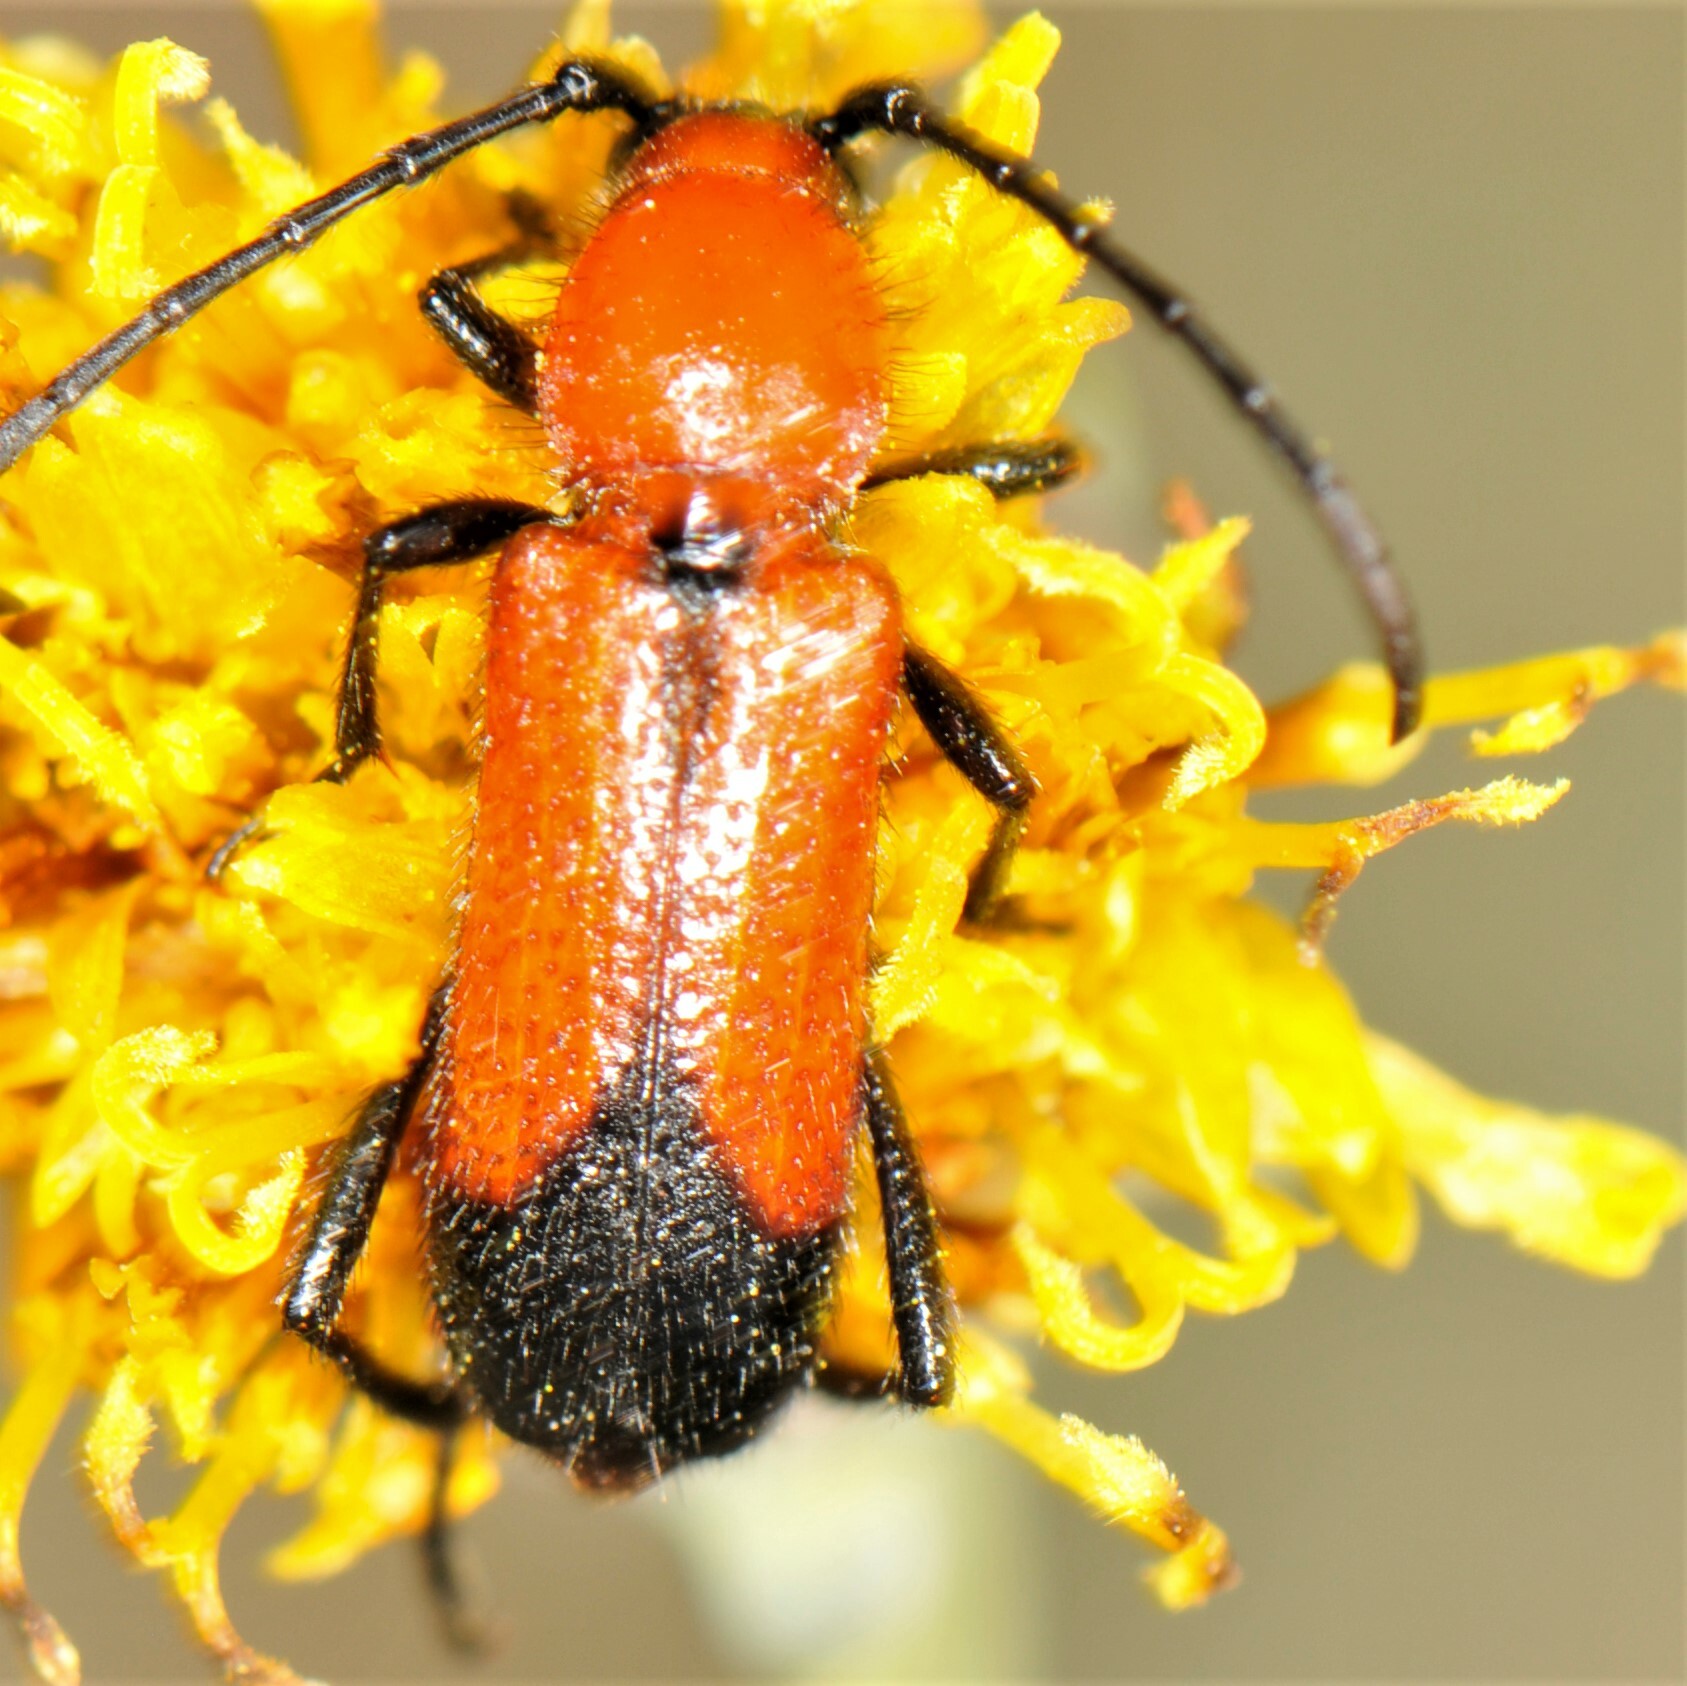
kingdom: Animalia
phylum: Arthropoda
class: Insecta
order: Coleoptera
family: Cerambycidae
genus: Batyle
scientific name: Batyle suturalis
